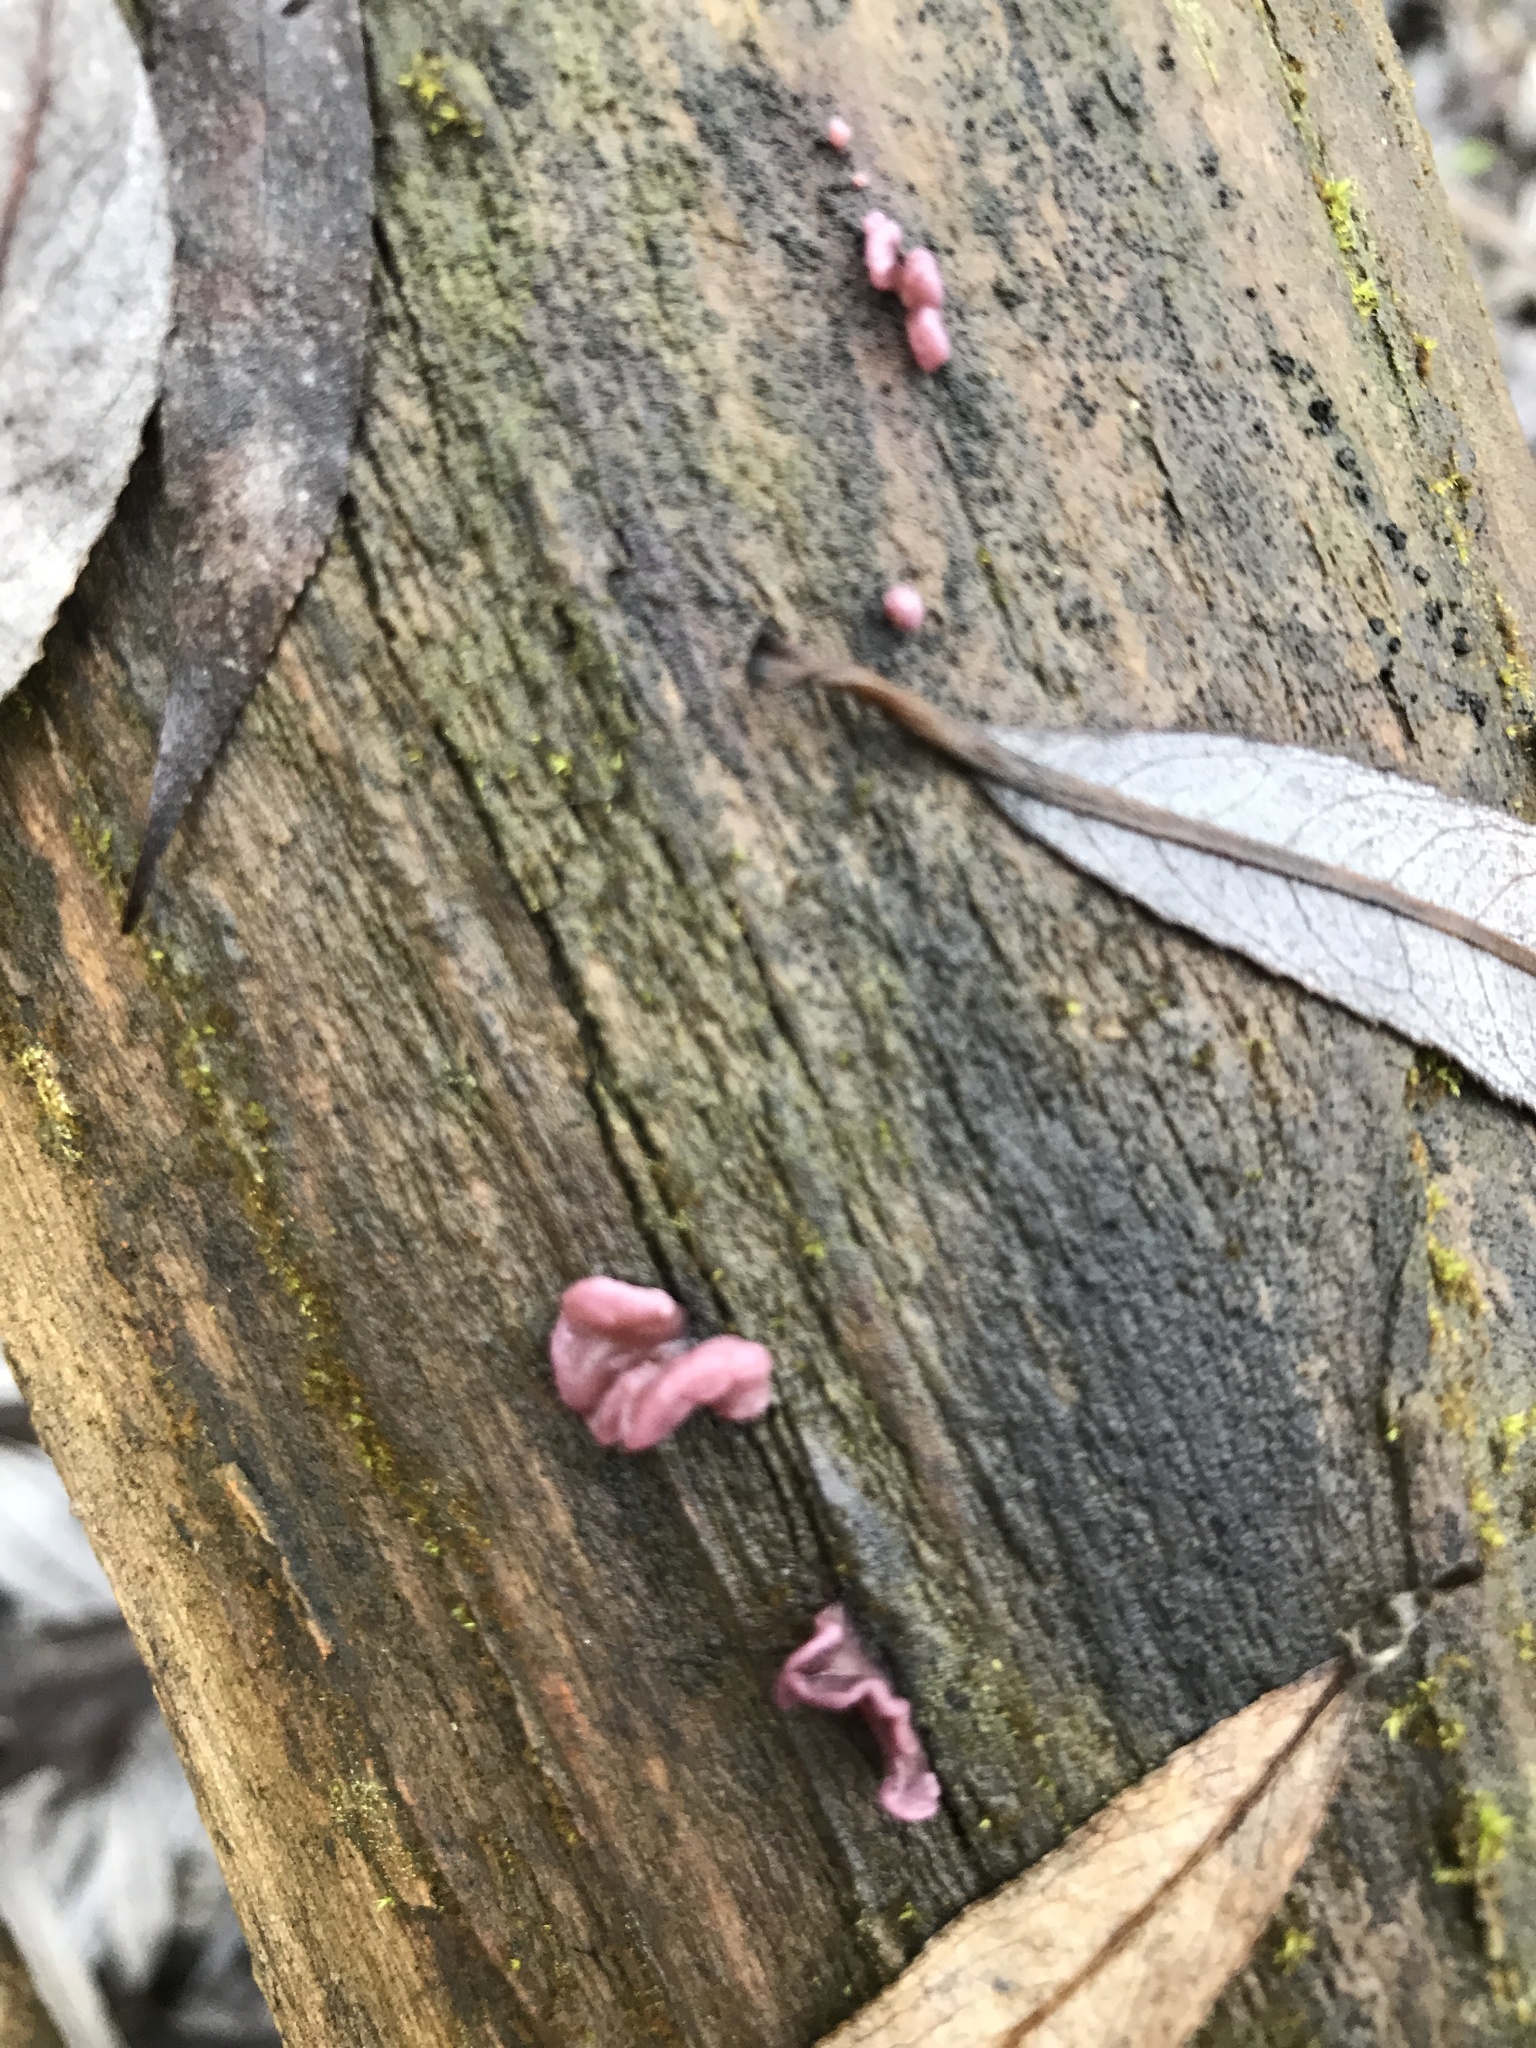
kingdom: Fungi
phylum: Ascomycota
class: Leotiomycetes
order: Helotiales
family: Gelatinodiscaceae
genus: Ascocoryne
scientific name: Ascocoryne sarcoides
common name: Purple jellydisc
